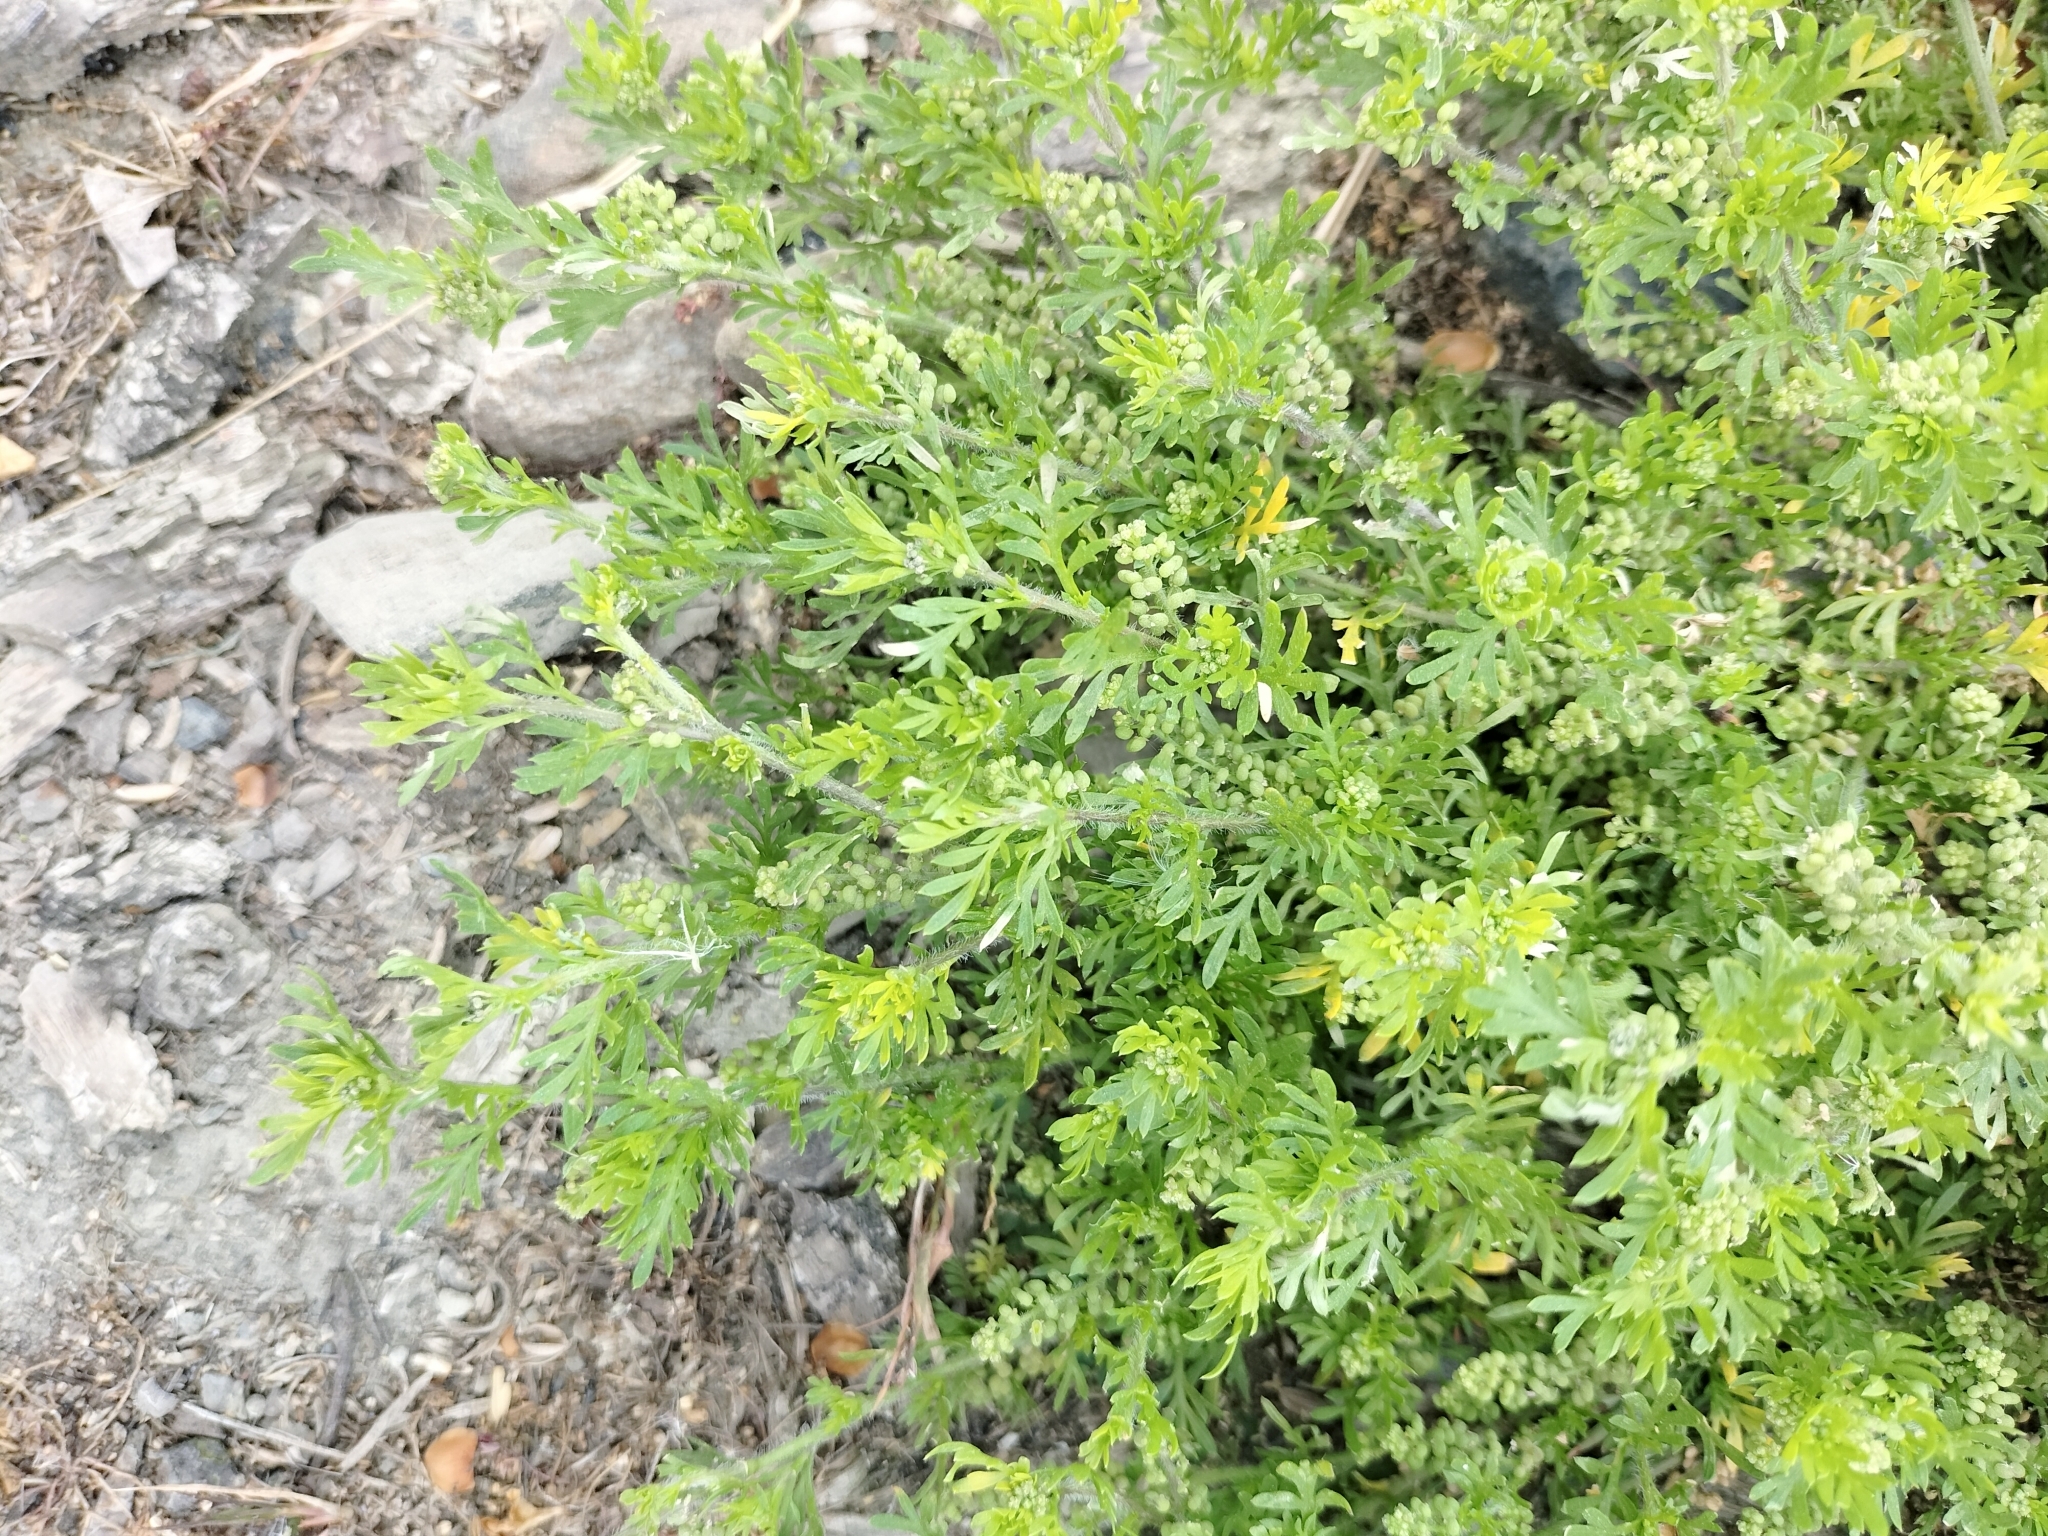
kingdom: Plantae
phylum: Tracheophyta
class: Magnoliopsida
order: Brassicales
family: Brassicaceae
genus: Lepidium
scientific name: Lepidium didymum
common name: Lesser swinecress
